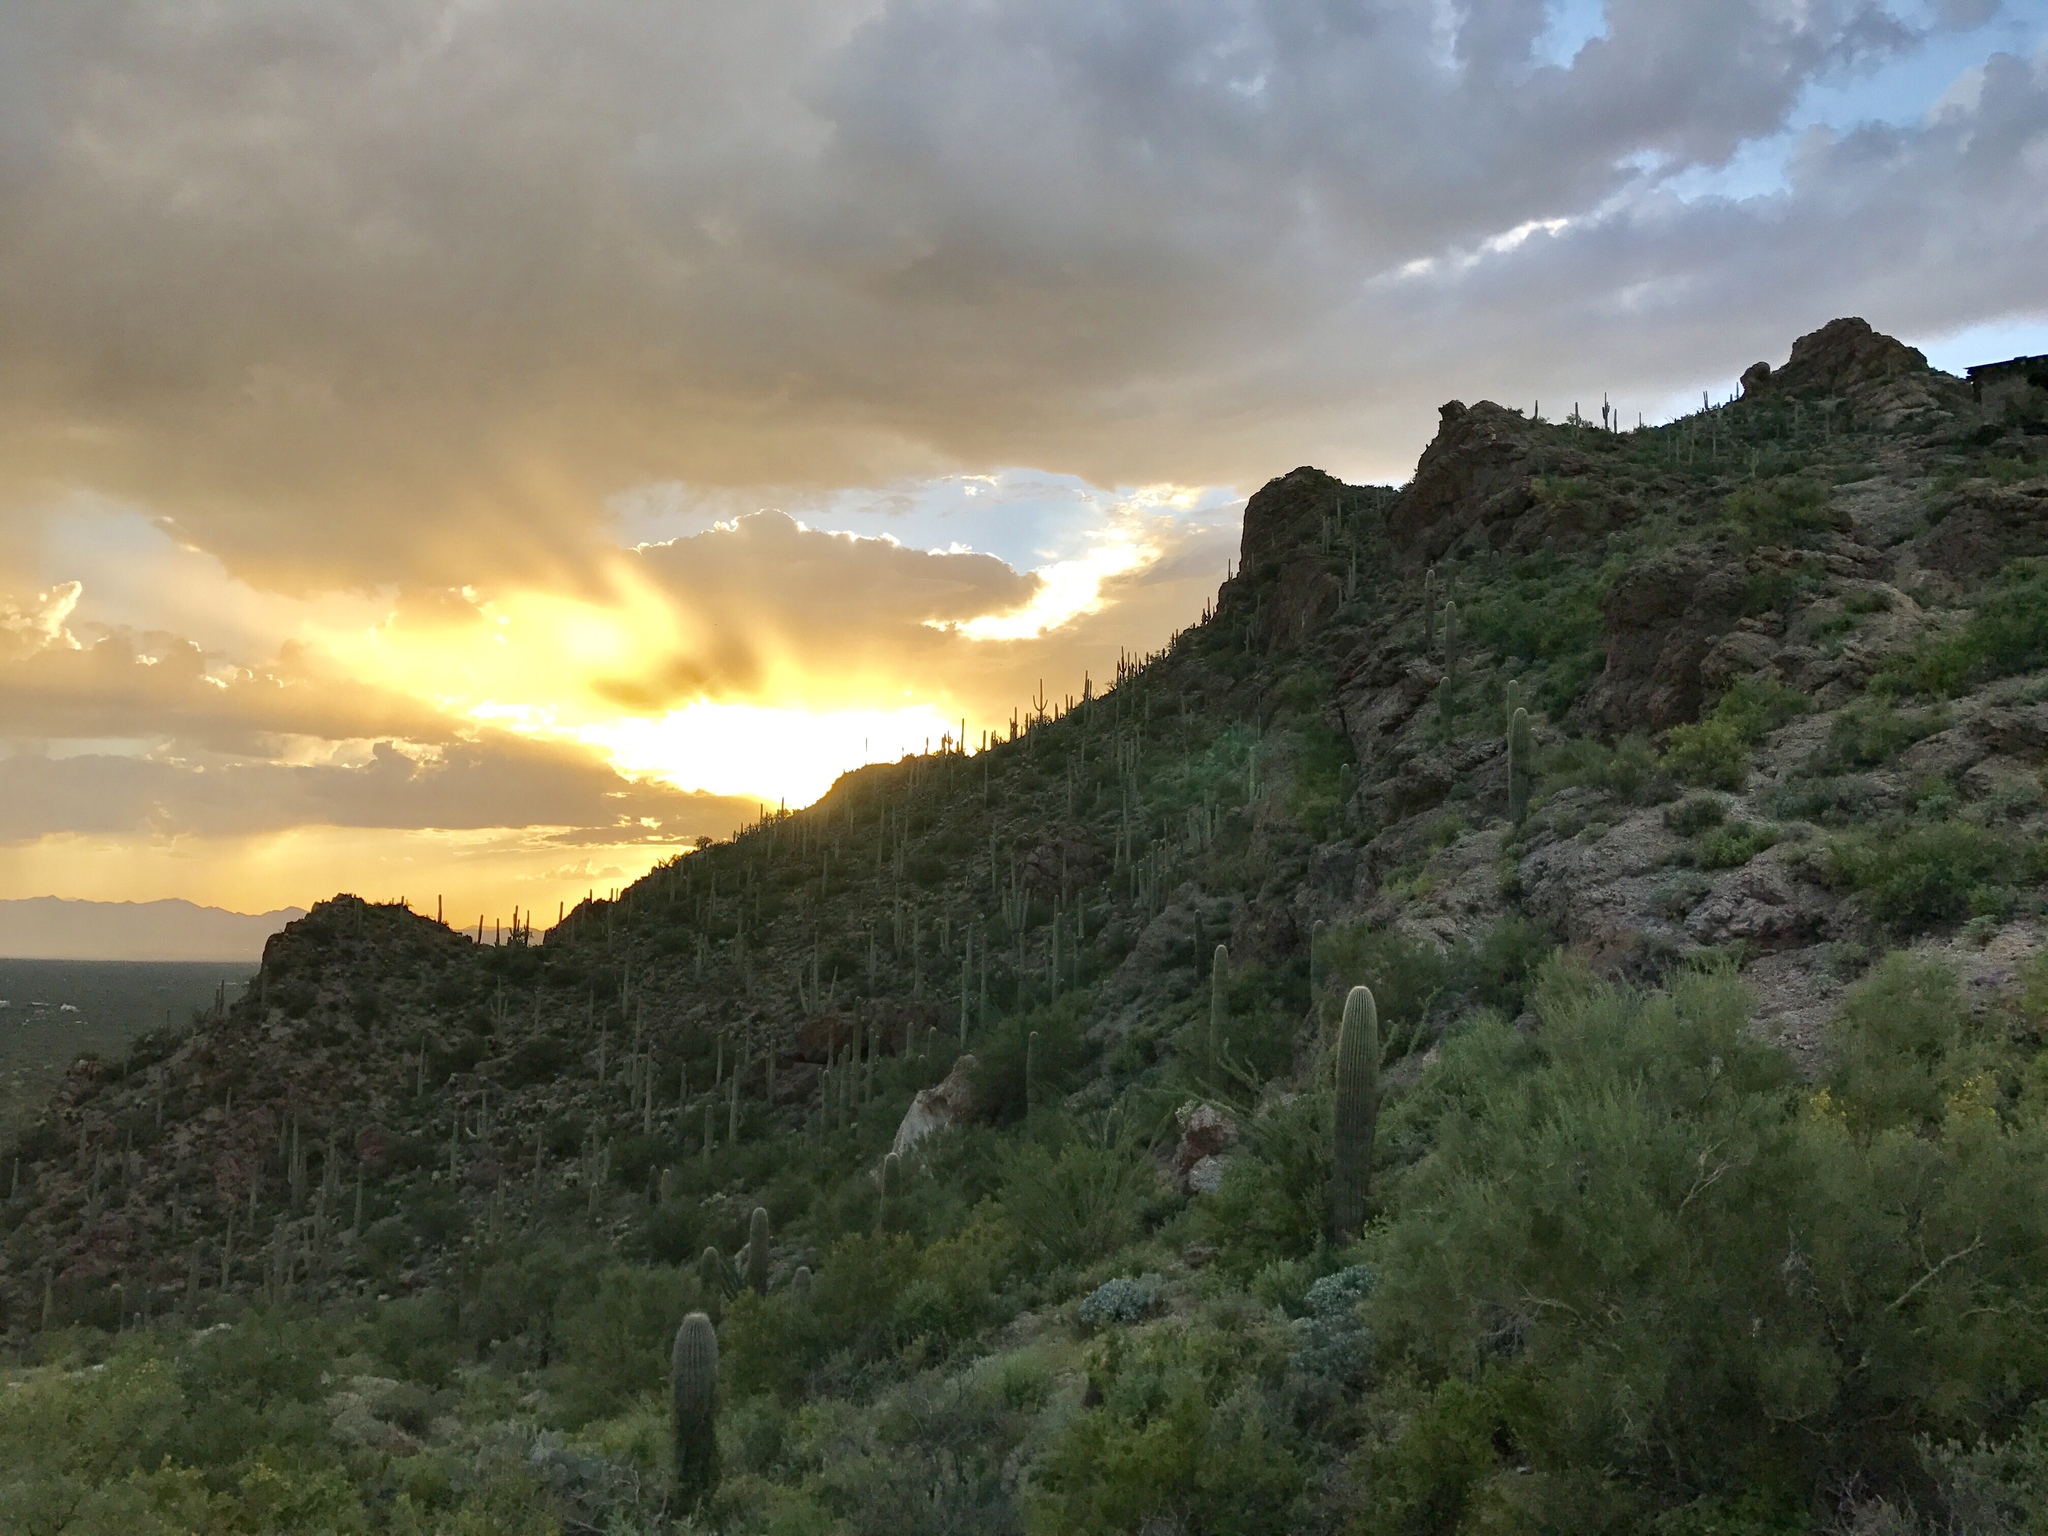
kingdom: Plantae
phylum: Tracheophyta
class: Magnoliopsida
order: Caryophyllales
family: Cactaceae
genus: Carnegiea
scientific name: Carnegiea gigantea
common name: Saguaro
